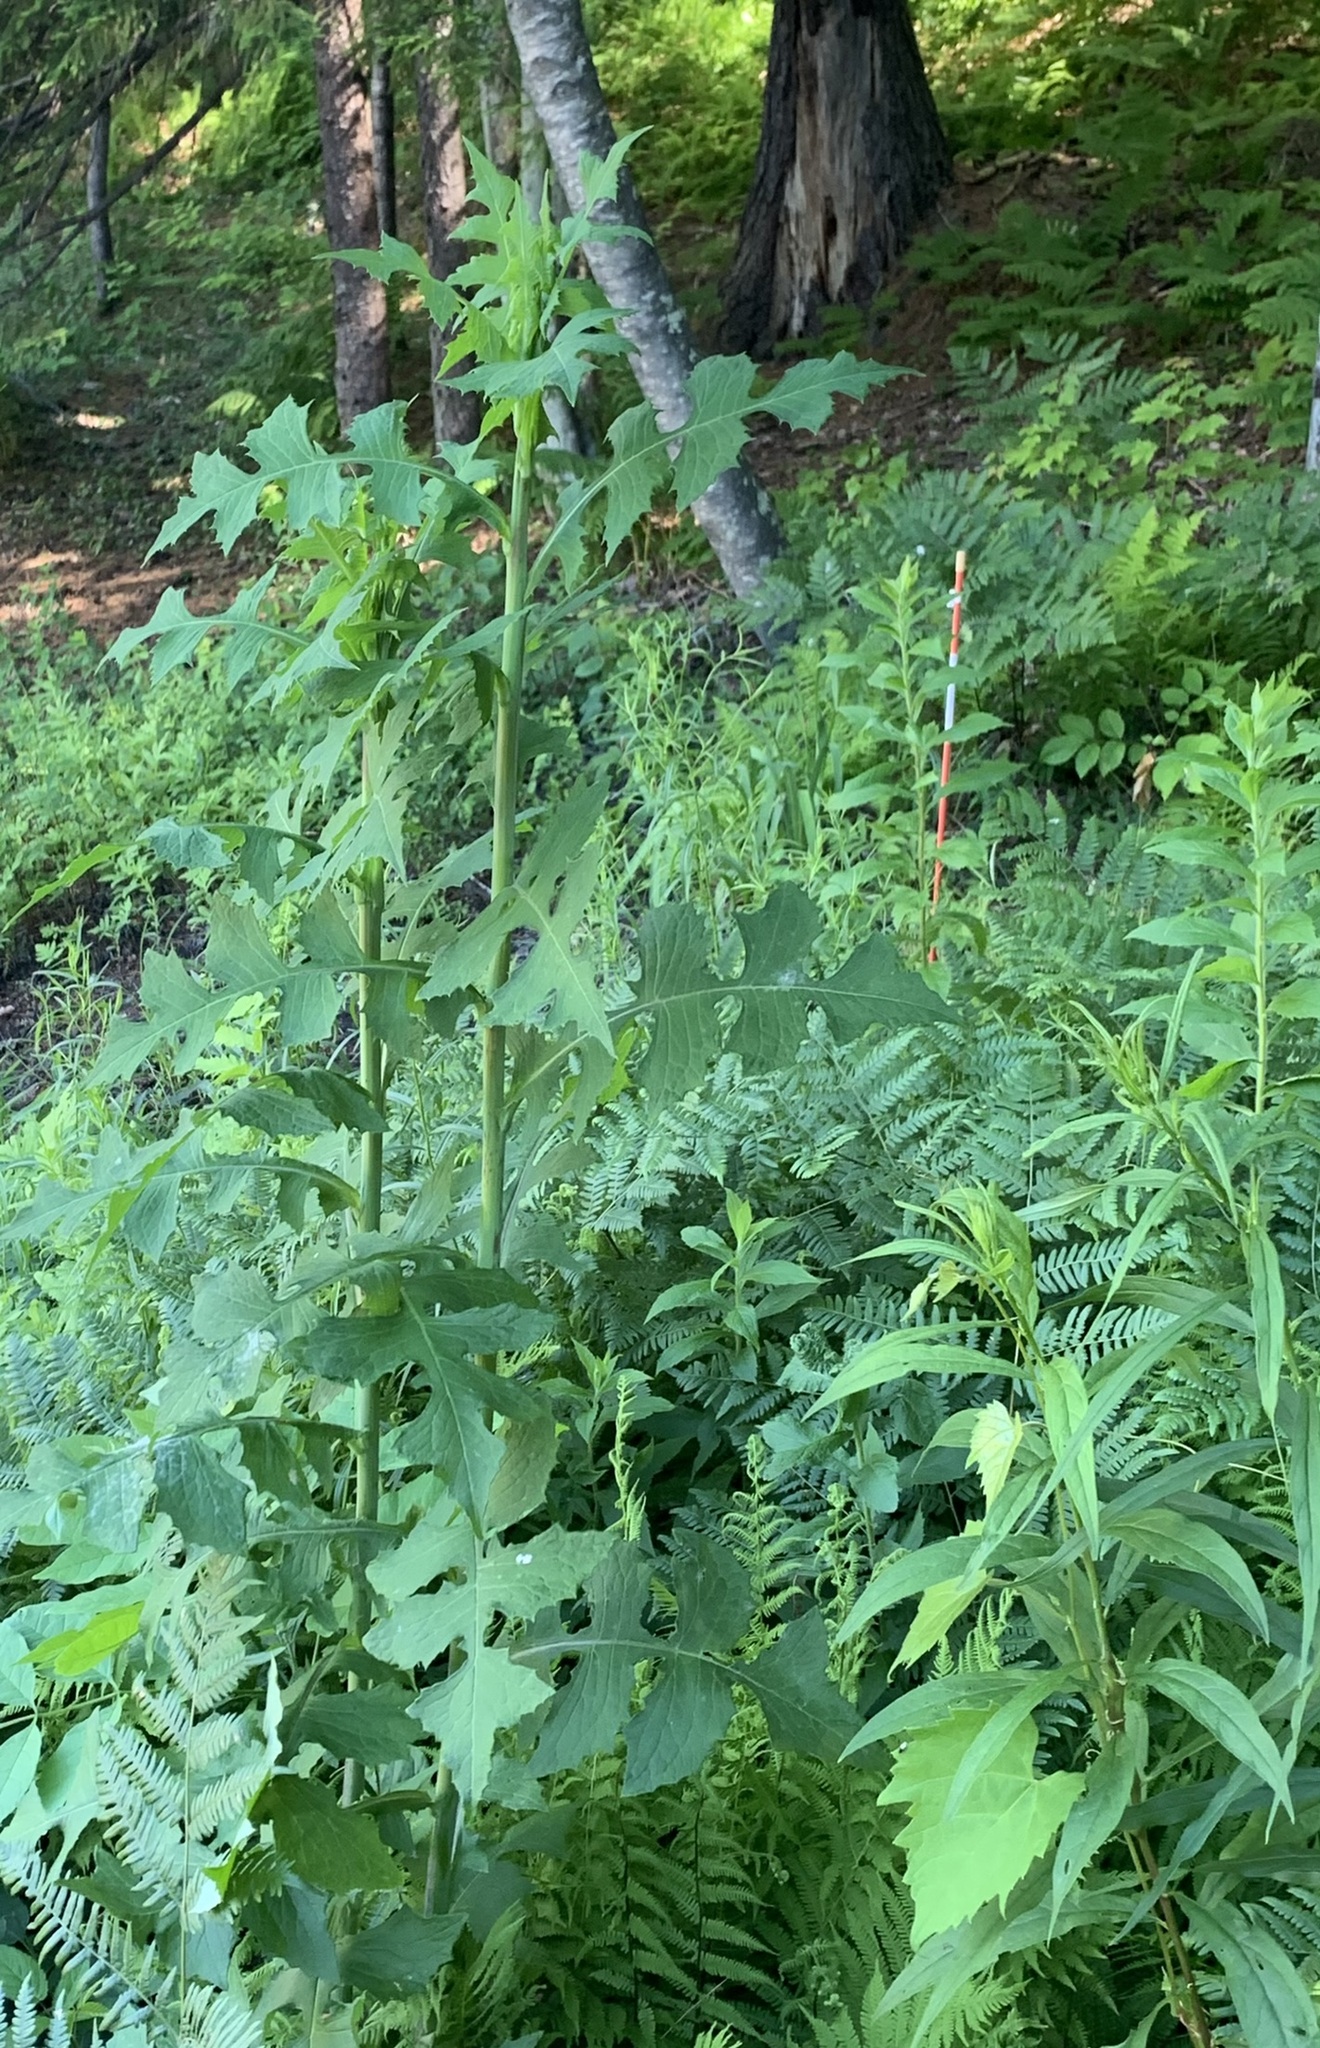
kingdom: Plantae
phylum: Tracheophyta
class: Magnoliopsida
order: Asterales
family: Asteraceae
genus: Lactuca
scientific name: Lactuca biennis
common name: Blue wood lettuce
